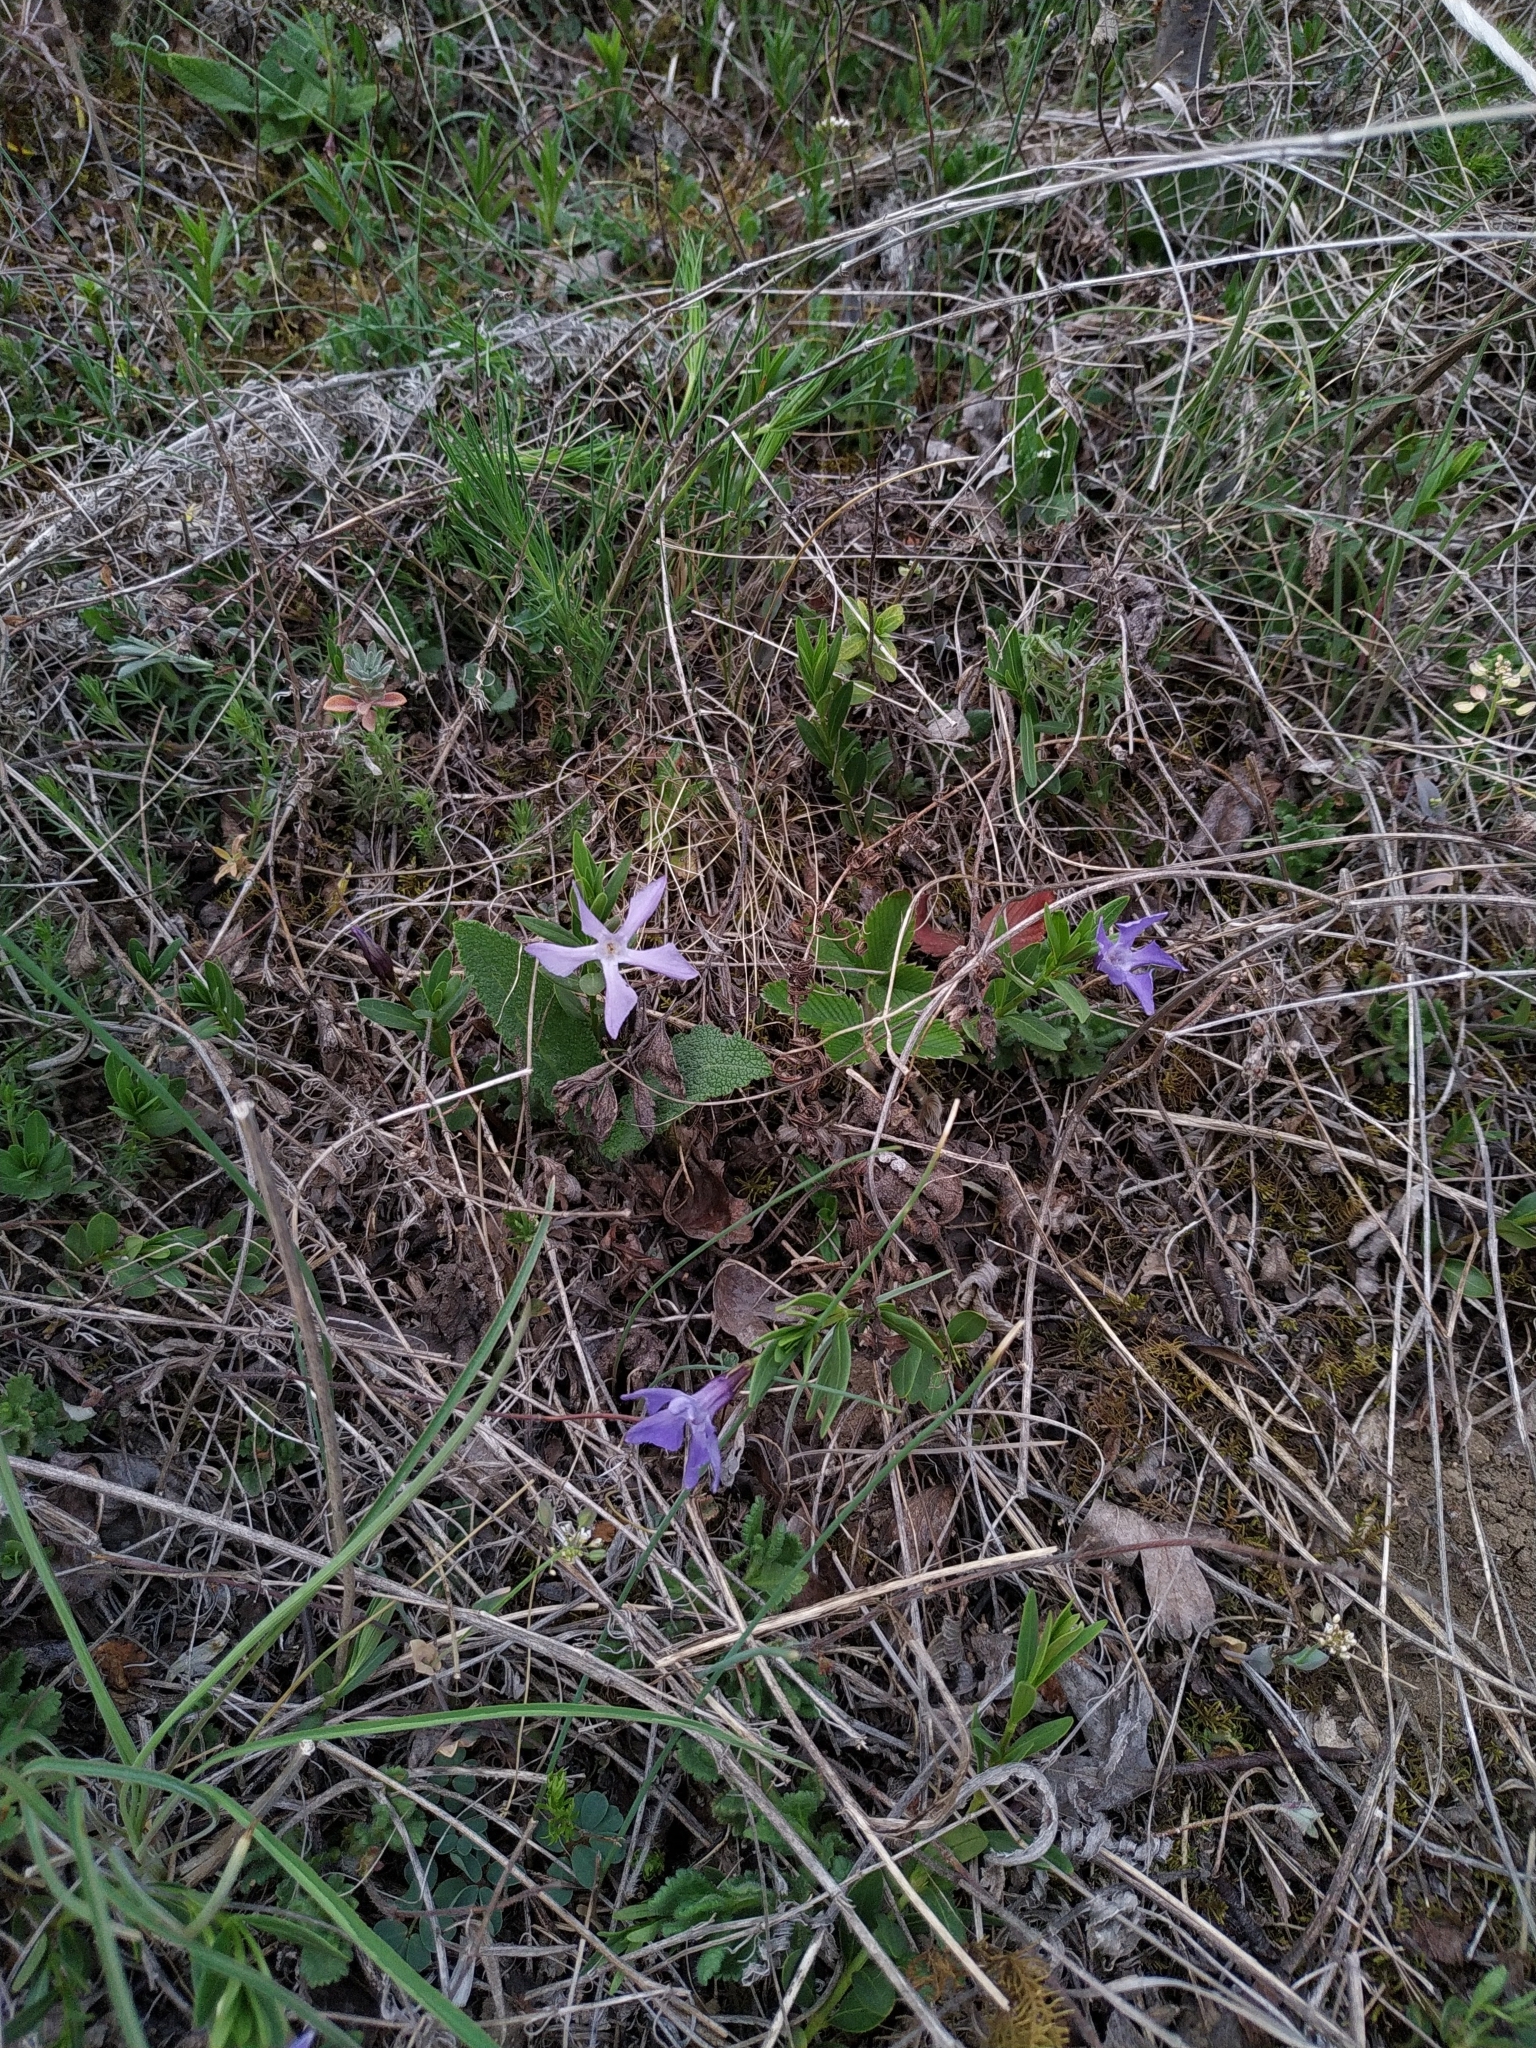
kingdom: Plantae
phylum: Tracheophyta
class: Magnoliopsida
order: Gentianales
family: Apocynaceae
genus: Vinca
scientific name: Vinca herbacea
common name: Herbaceous periwinkle
